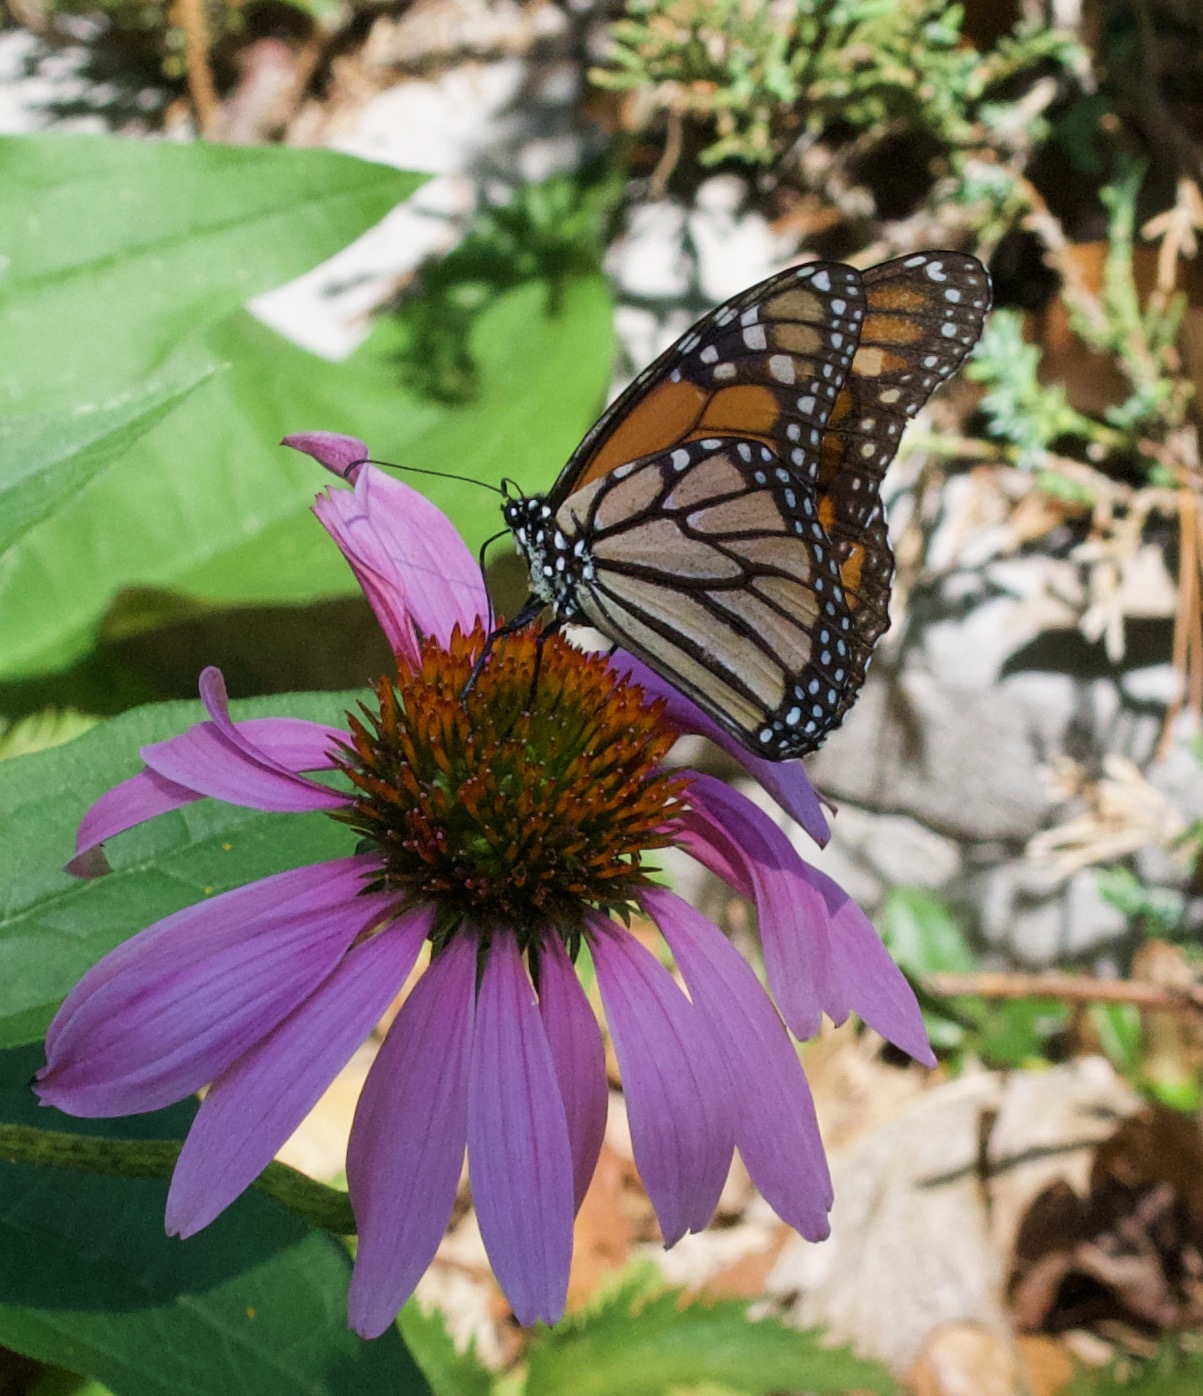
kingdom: Animalia
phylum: Arthropoda
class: Insecta
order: Lepidoptera
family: Nymphalidae
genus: Danaus
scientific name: Danaus plexippus
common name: Monarch
